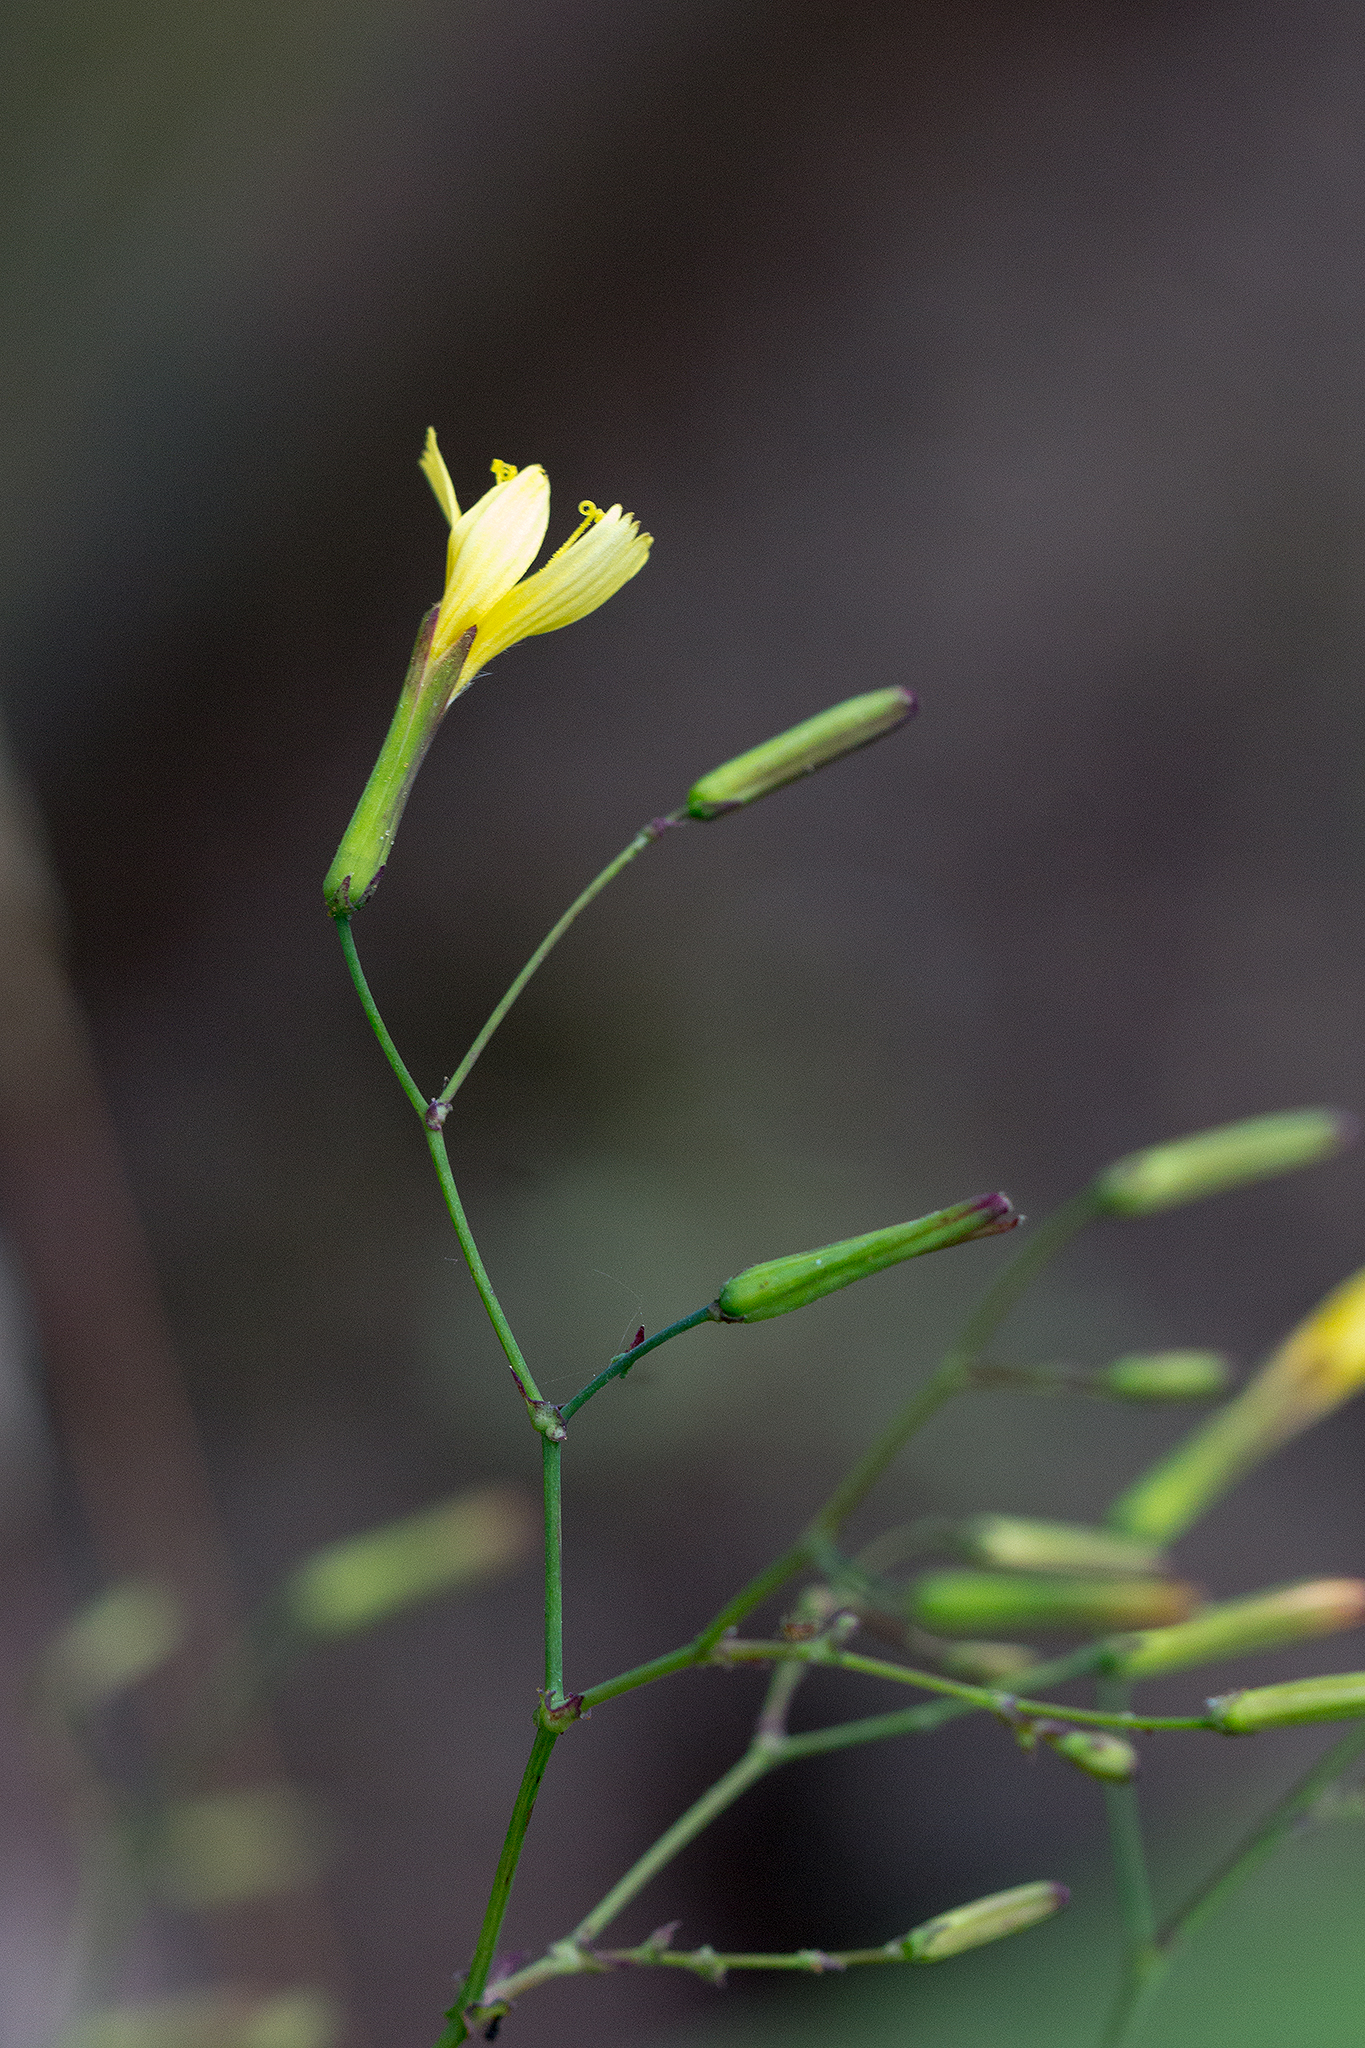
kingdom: Plantae
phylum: Tracheophyta
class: Magnoliopsida
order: Asterales
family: Asteraceae
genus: Mycelis
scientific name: Mycelis muralis
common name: Wall lettuce
